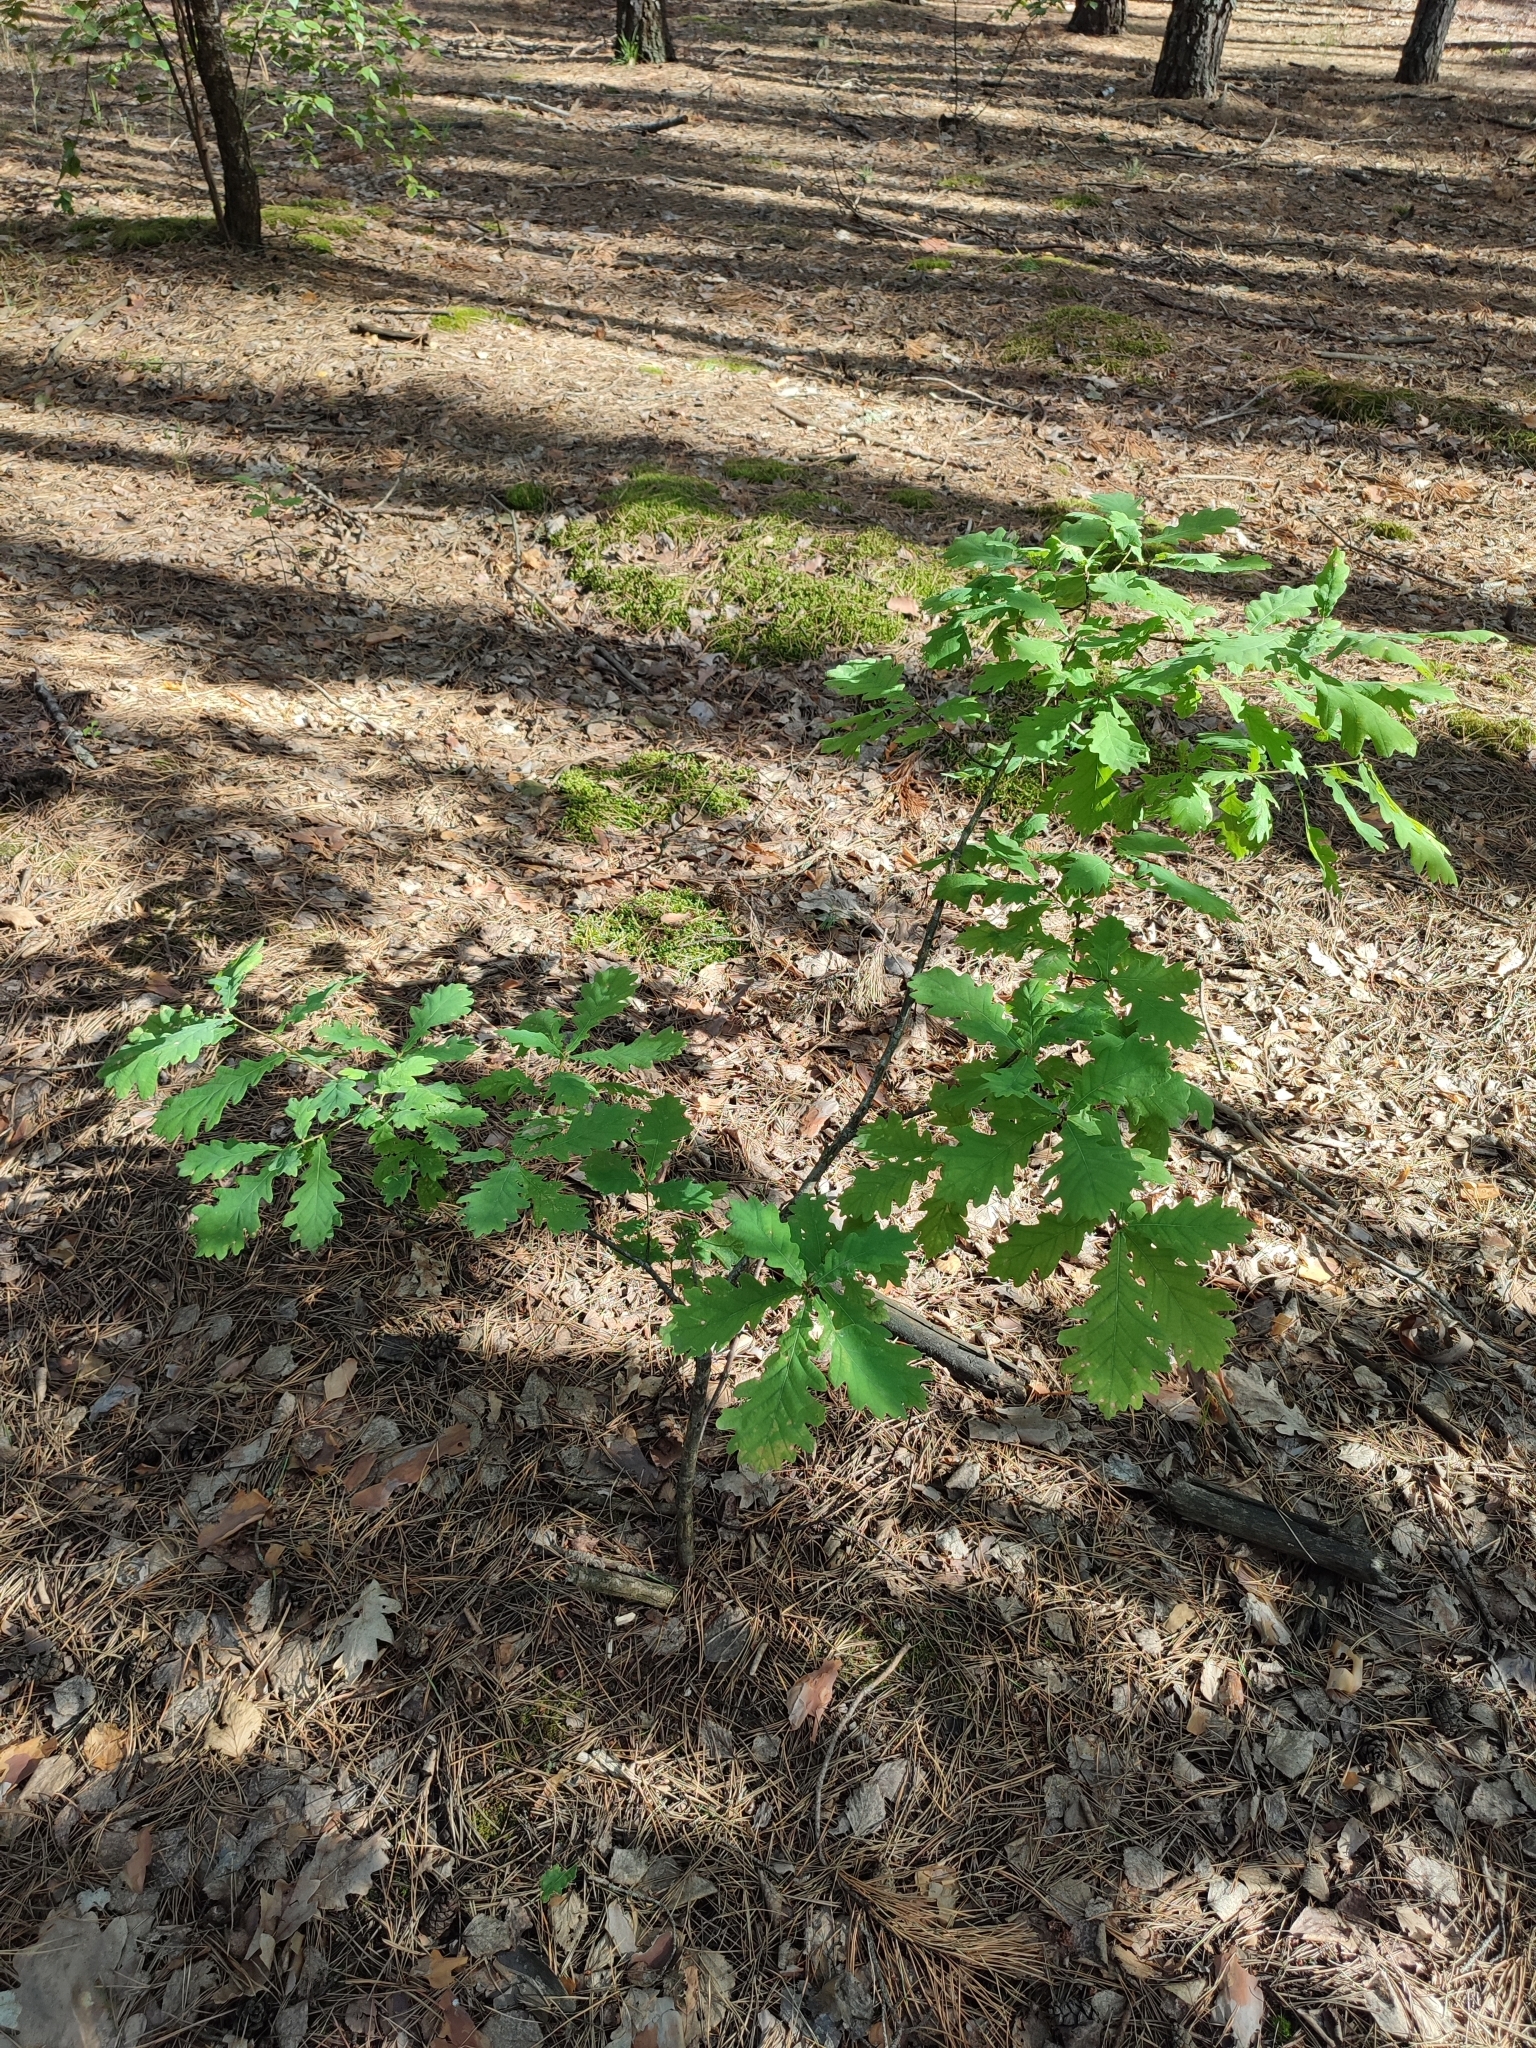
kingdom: Plantae
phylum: Tracheophyta
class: Magnoliopsida
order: Fagales
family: Fagaceae
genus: Quercus
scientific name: Quercus robur
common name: Pedunculate oak
